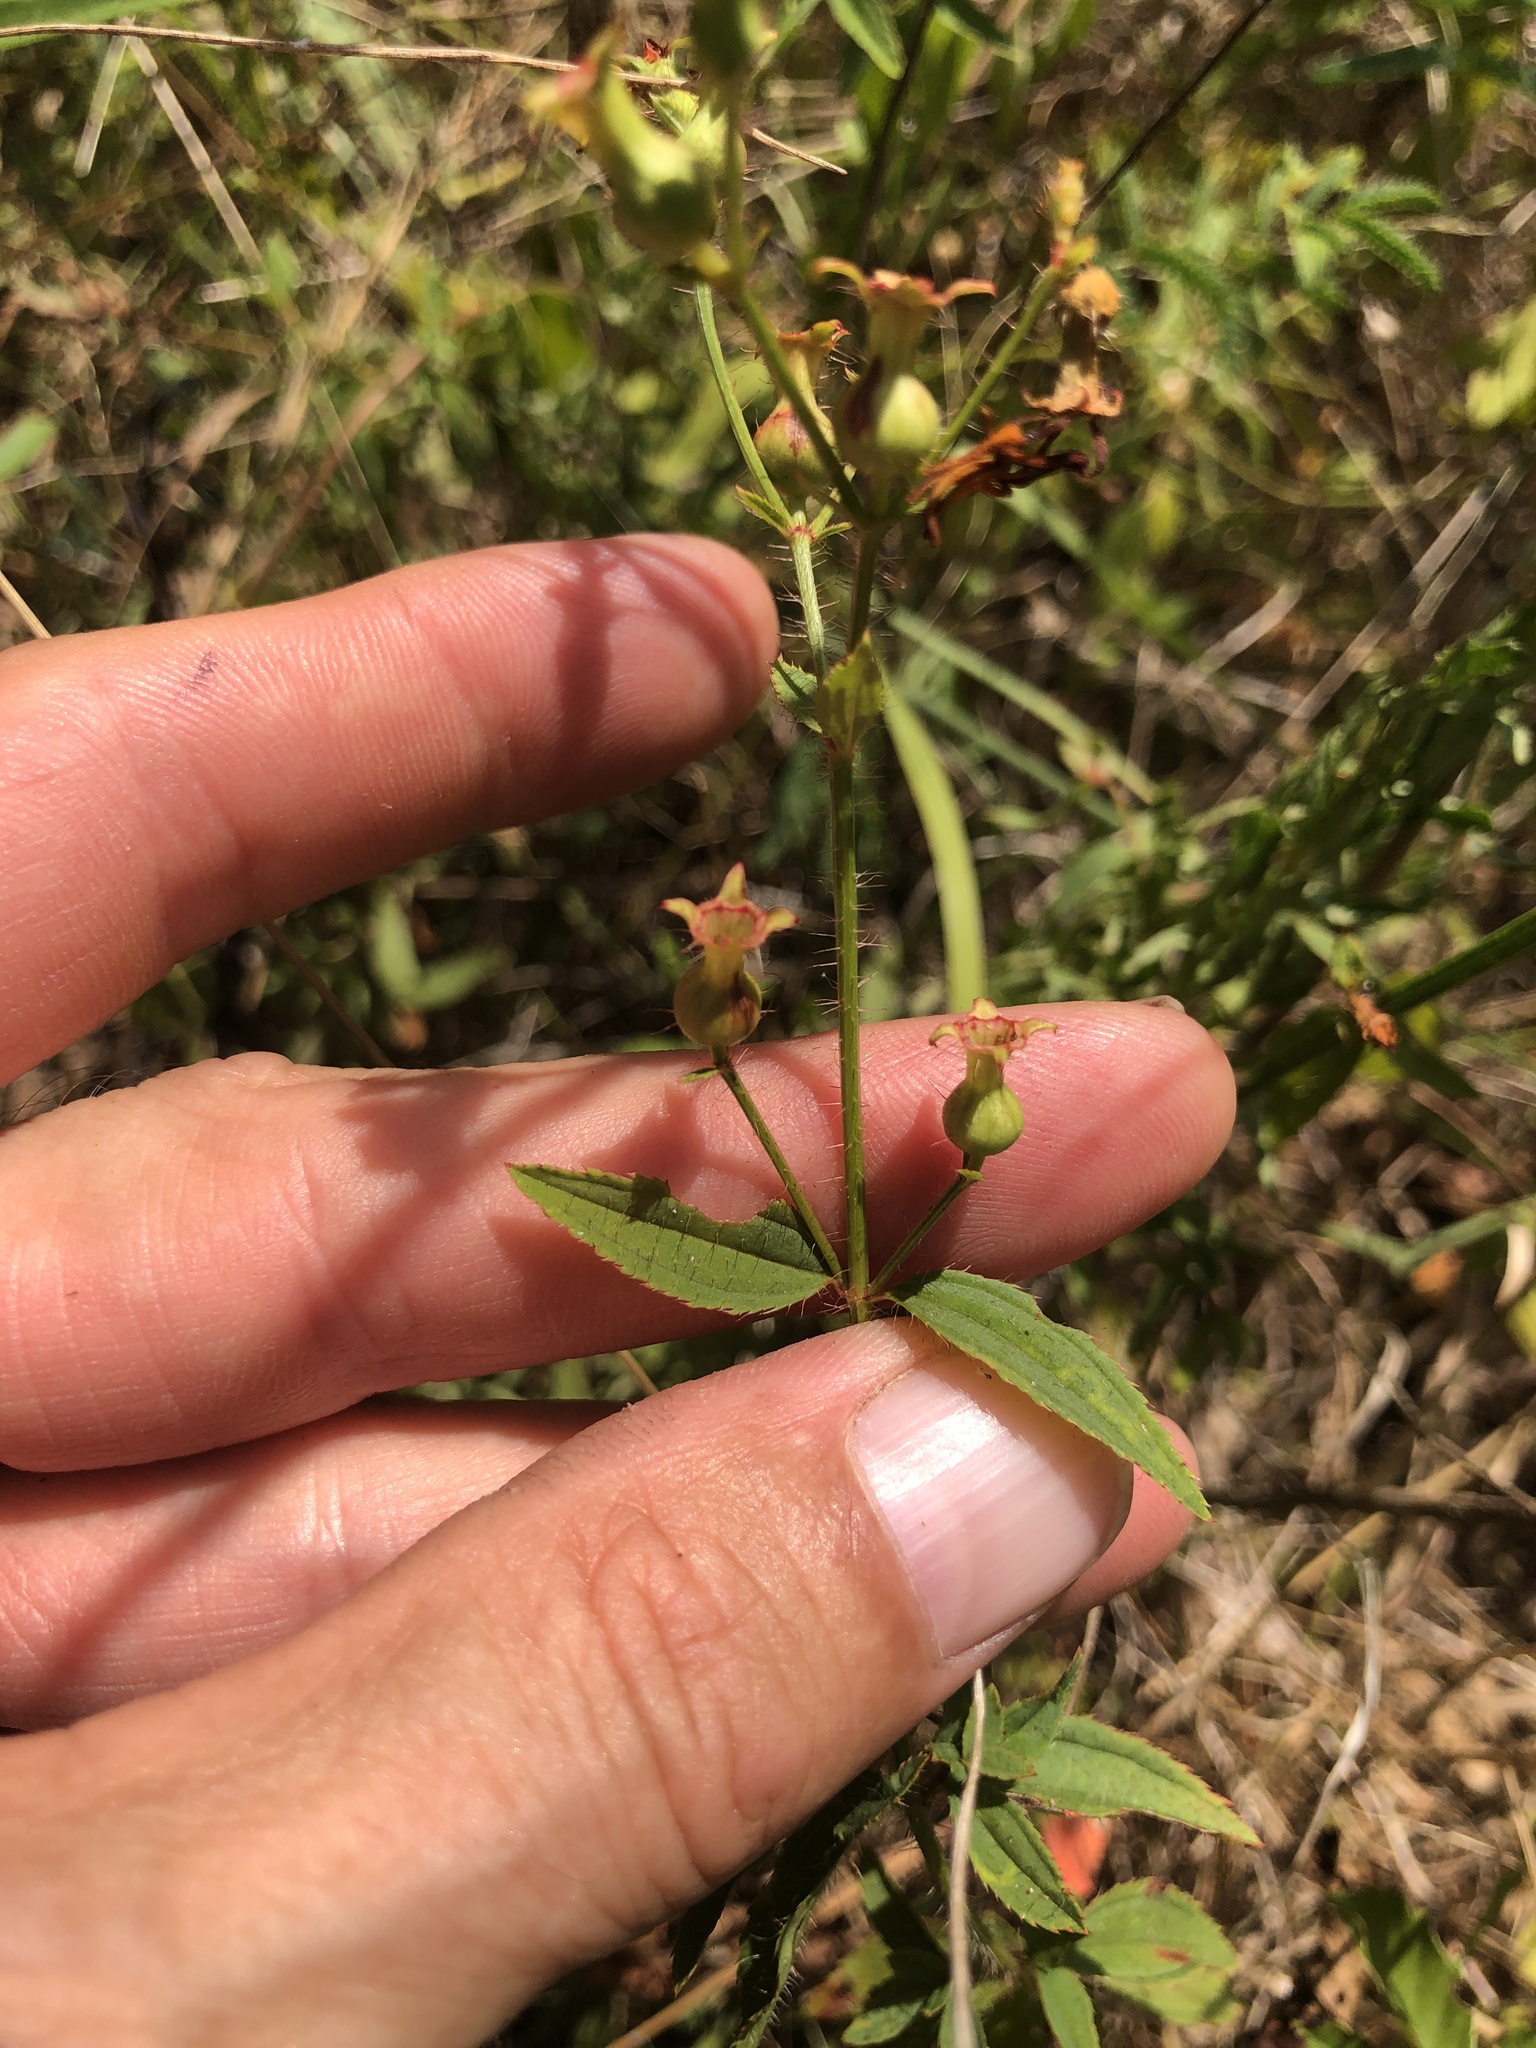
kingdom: Plantae
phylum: Tracheophyta
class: Magnoliopsida
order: Myrtales
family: Melastomataceae
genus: Rhexia
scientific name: Rhexia mariana
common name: Dull meadow-pitcher
